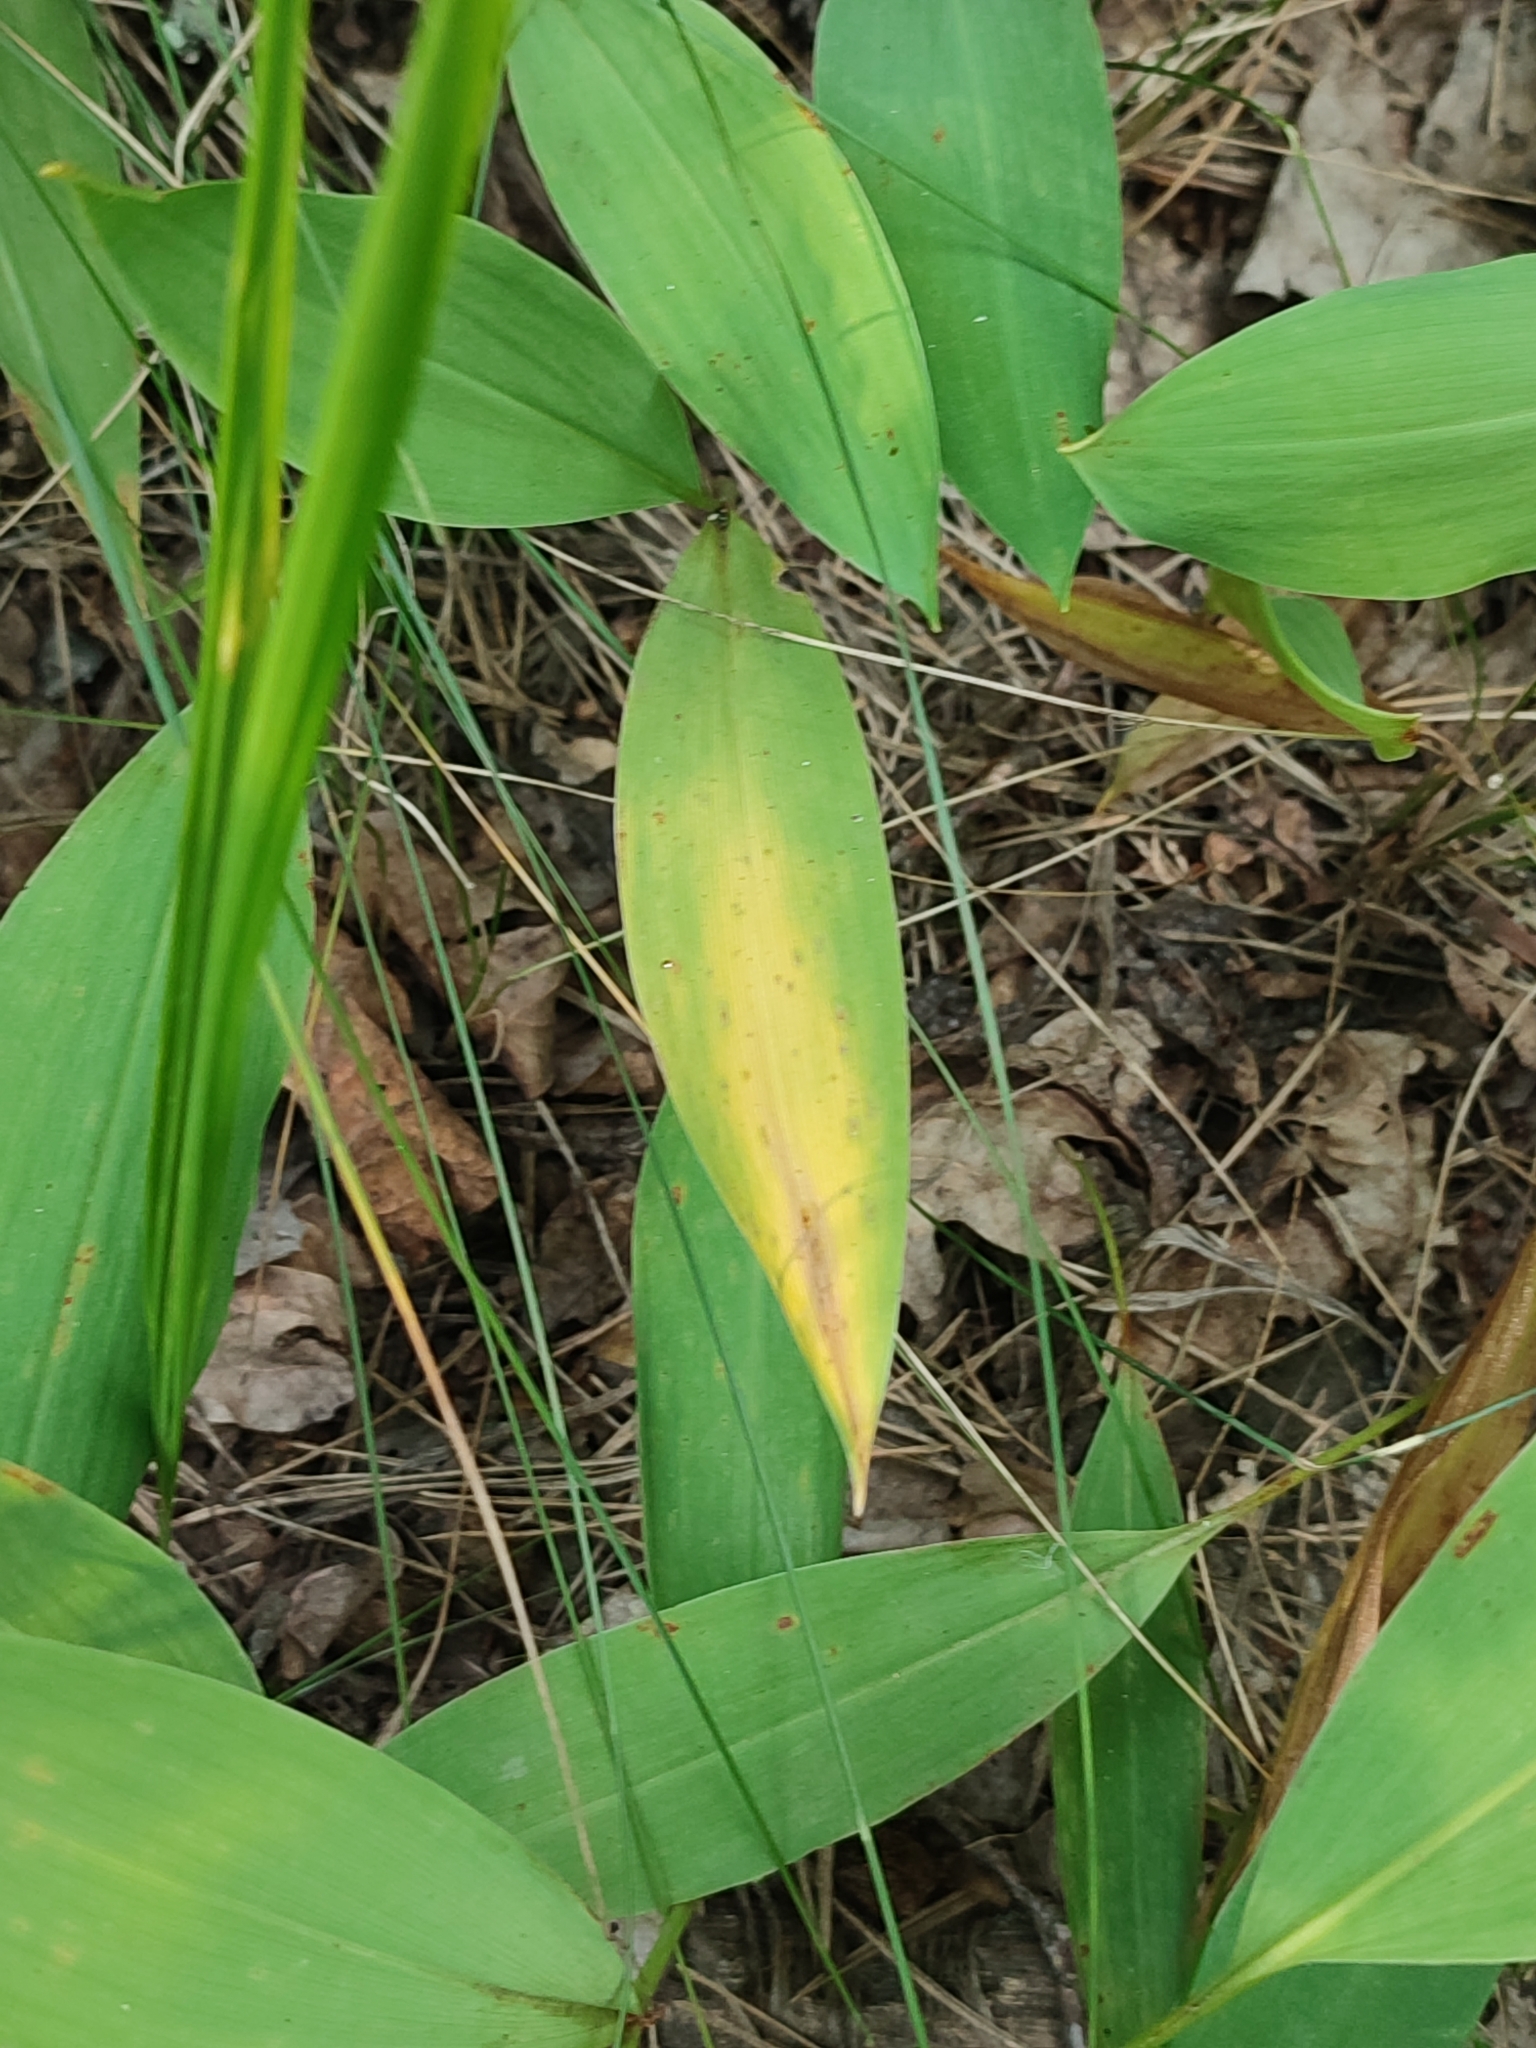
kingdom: Plantae
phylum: Tracheophyta
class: Liliopsida
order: Asparagales
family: Asparagaceae
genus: Convallaria
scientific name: Convallaria majalis
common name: Lily-of-the-valley
